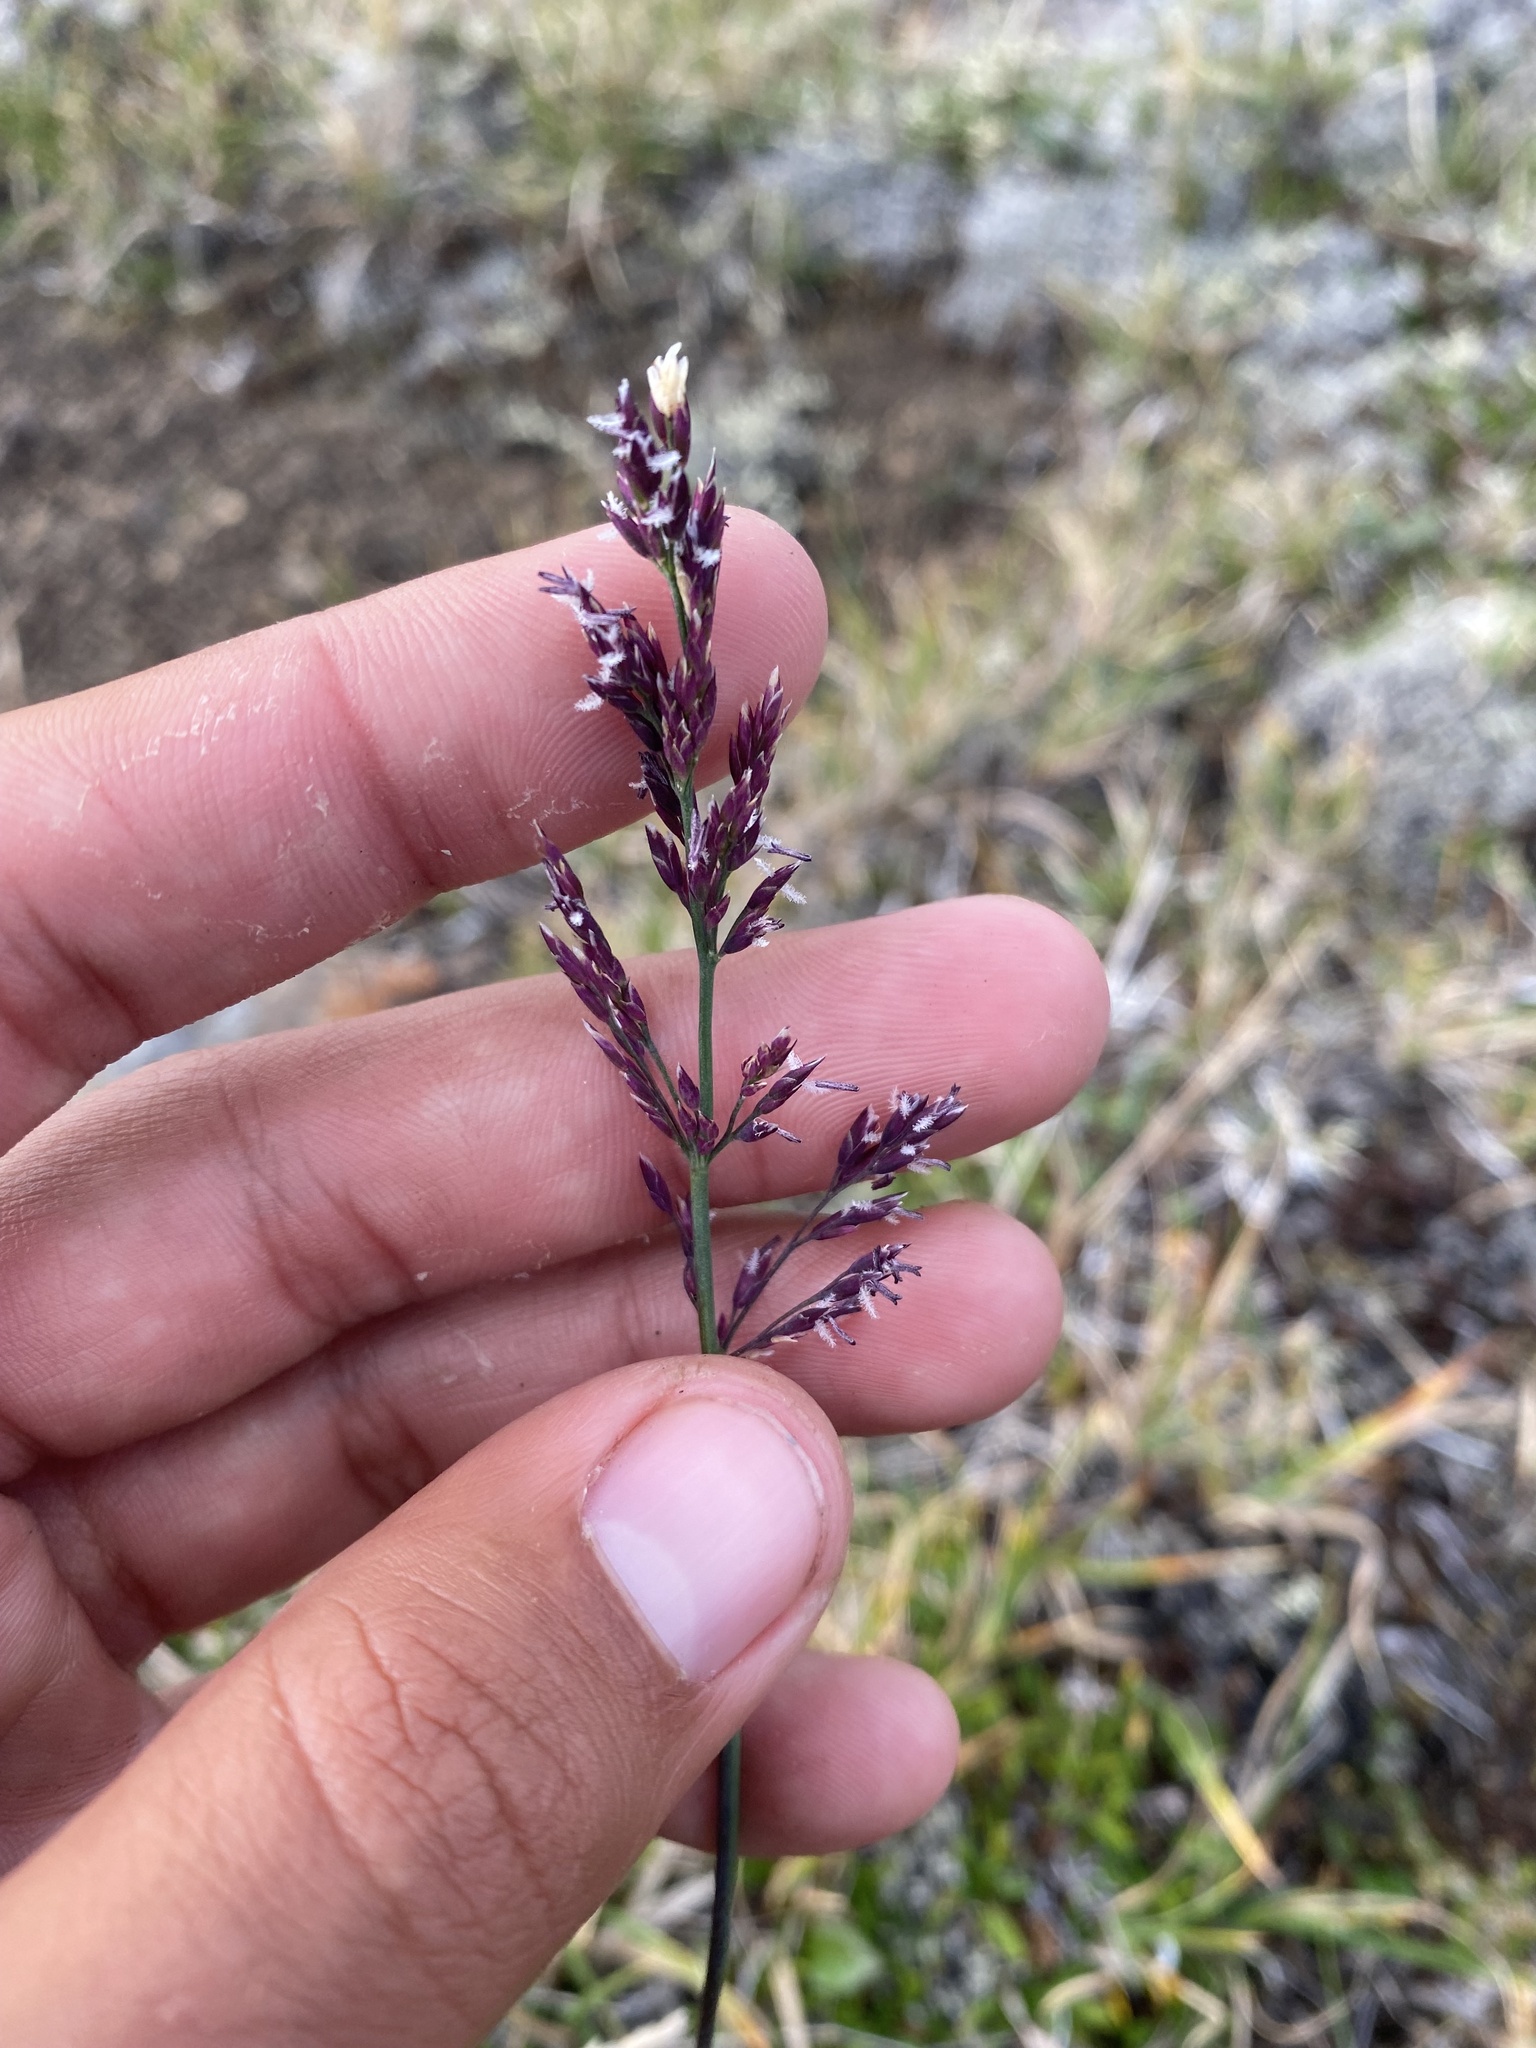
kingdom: Plantae
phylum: Tracheophyta
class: Liliopsida
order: Poales
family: Poaceae
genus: Arctagrostis
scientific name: Arctagrostis latifolia
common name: Arctic grass
